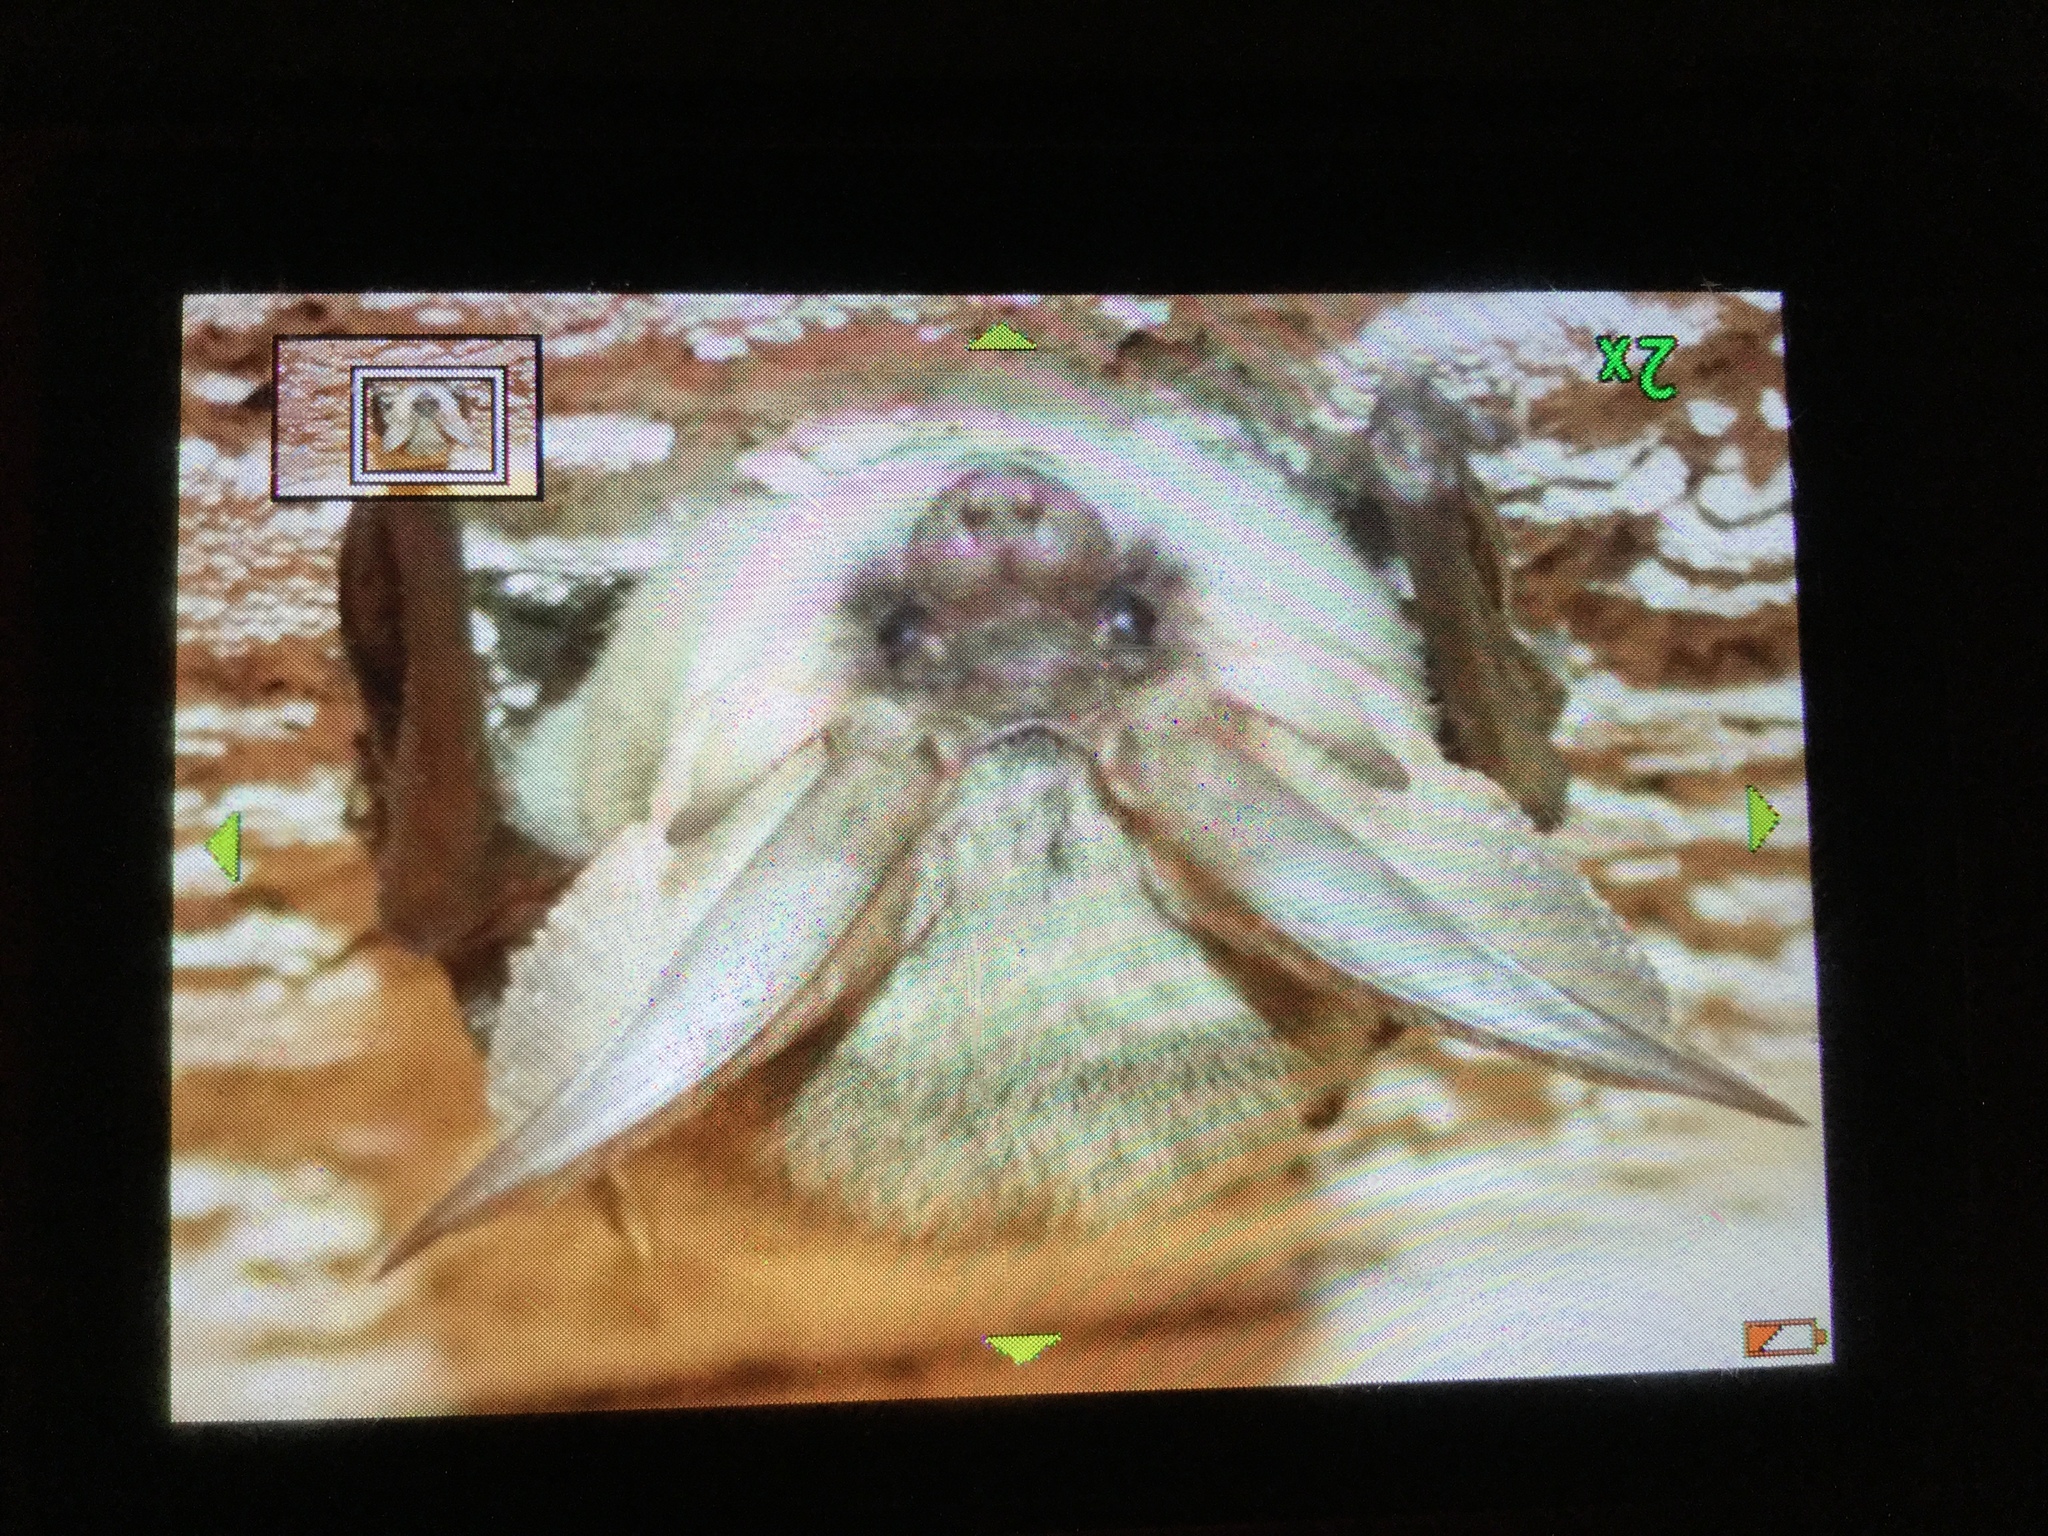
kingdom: Animalia
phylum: Chordata
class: Mammalia
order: Chiroptera
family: Vespertilionidae
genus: Plecotus
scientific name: Plecotus austriacus
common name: Grey long-eared bat
